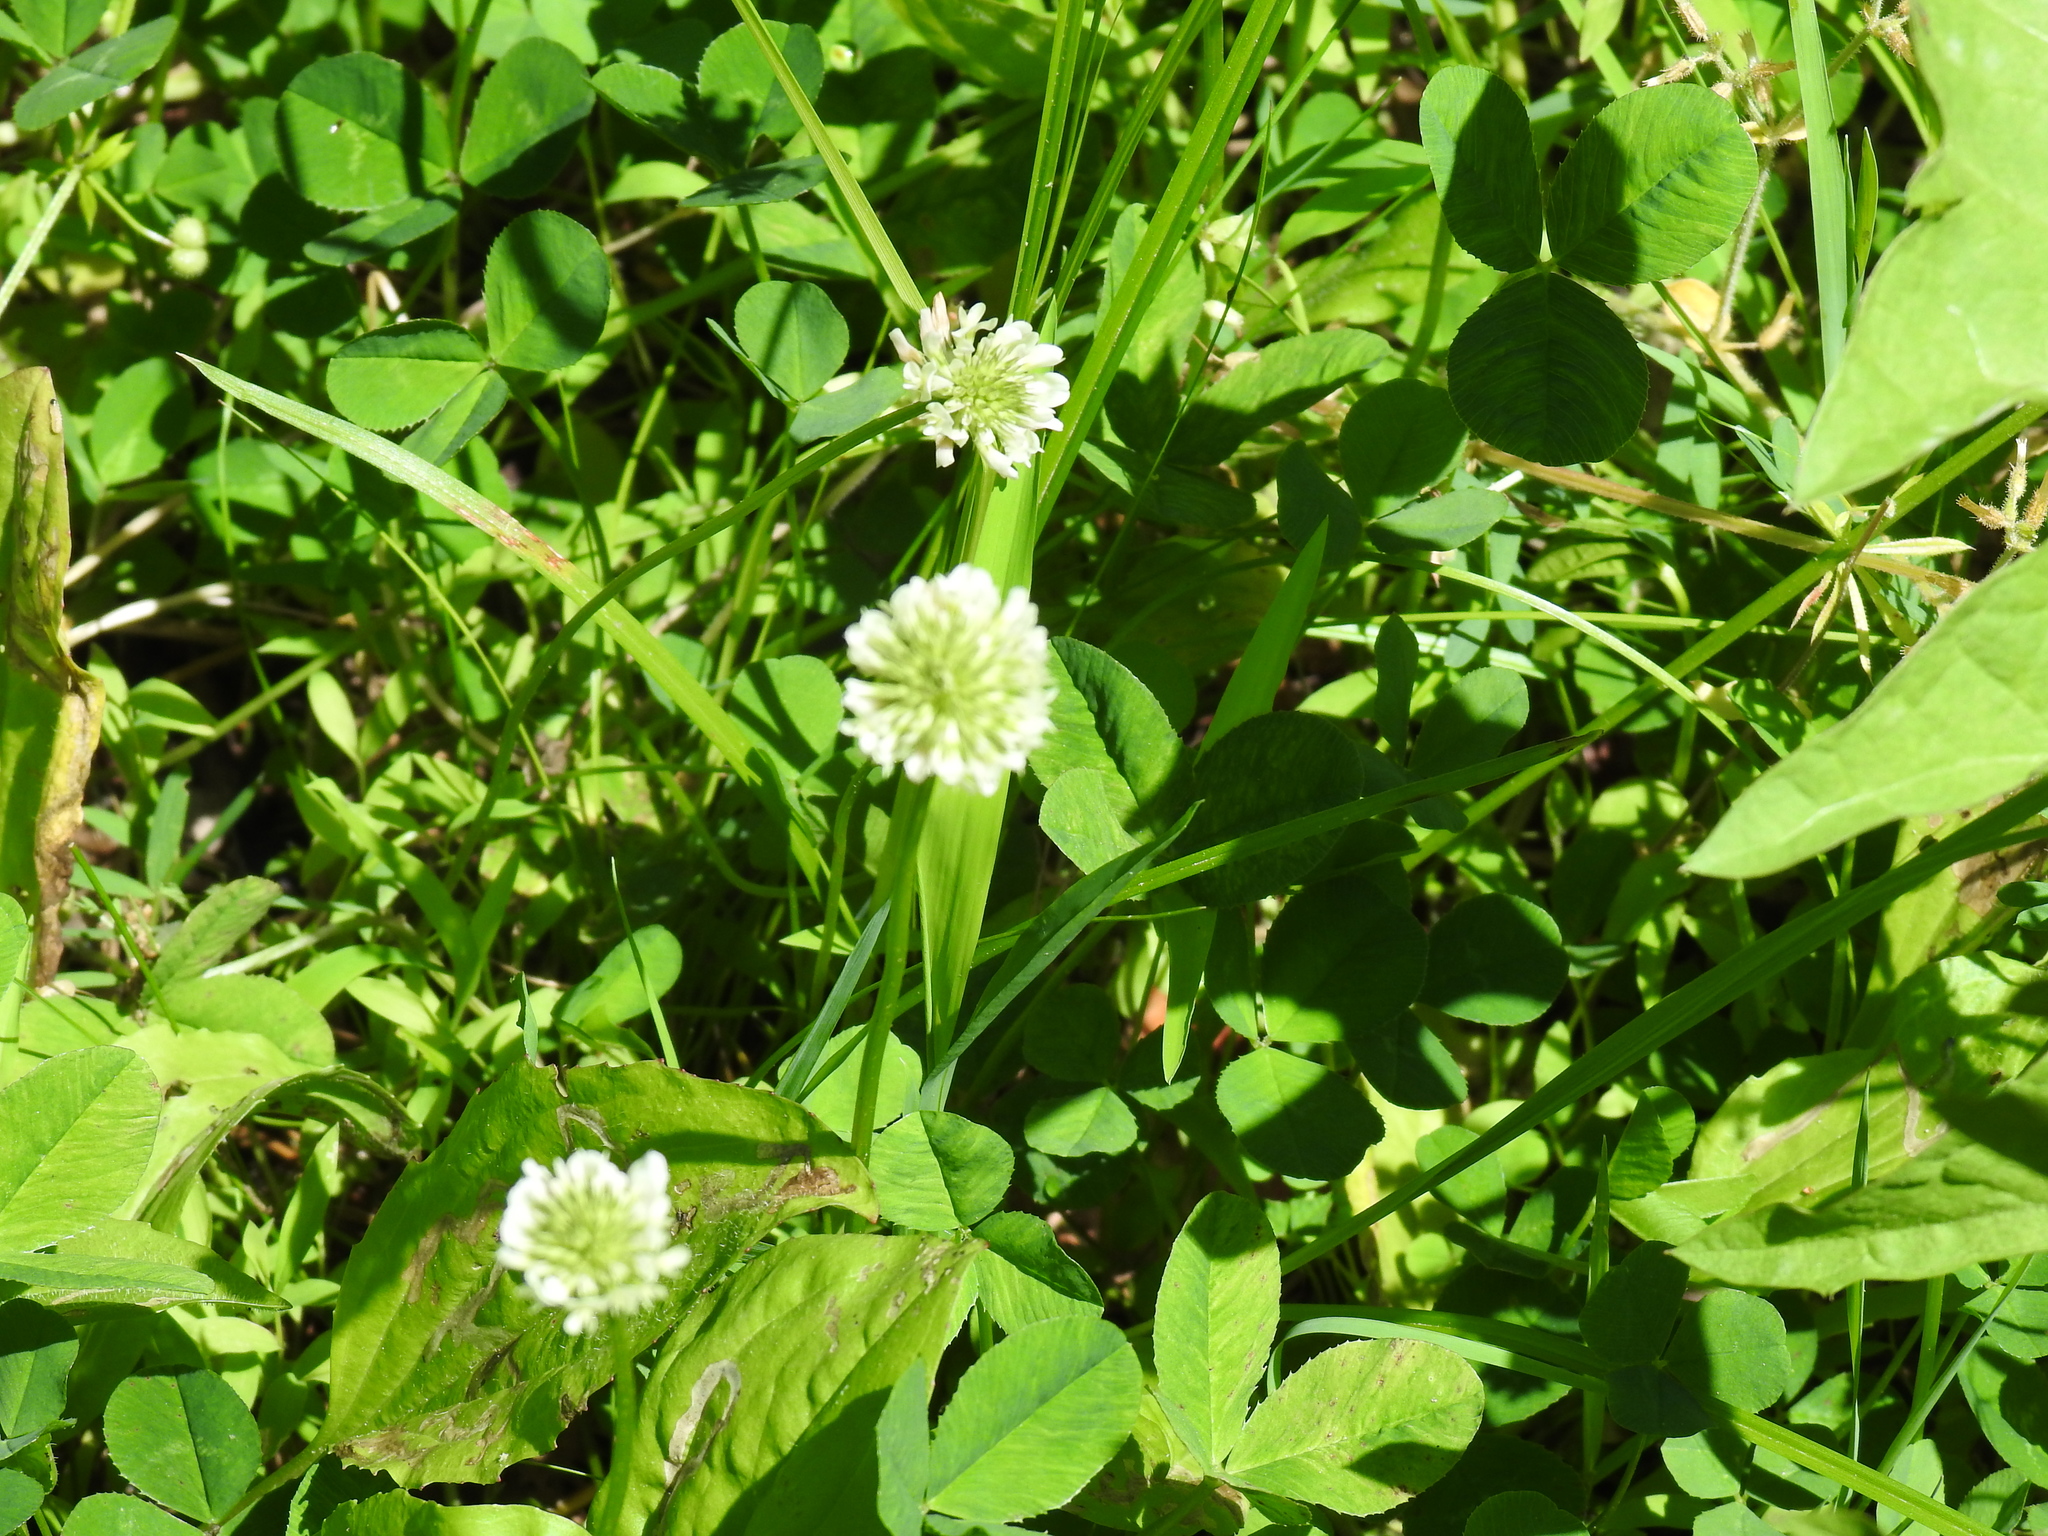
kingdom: Plantae
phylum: Tracheophyta
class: Magnoliopsida
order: Fabales
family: Fabaceae
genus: Trifolium
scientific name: Trifolium repens
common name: White clover
